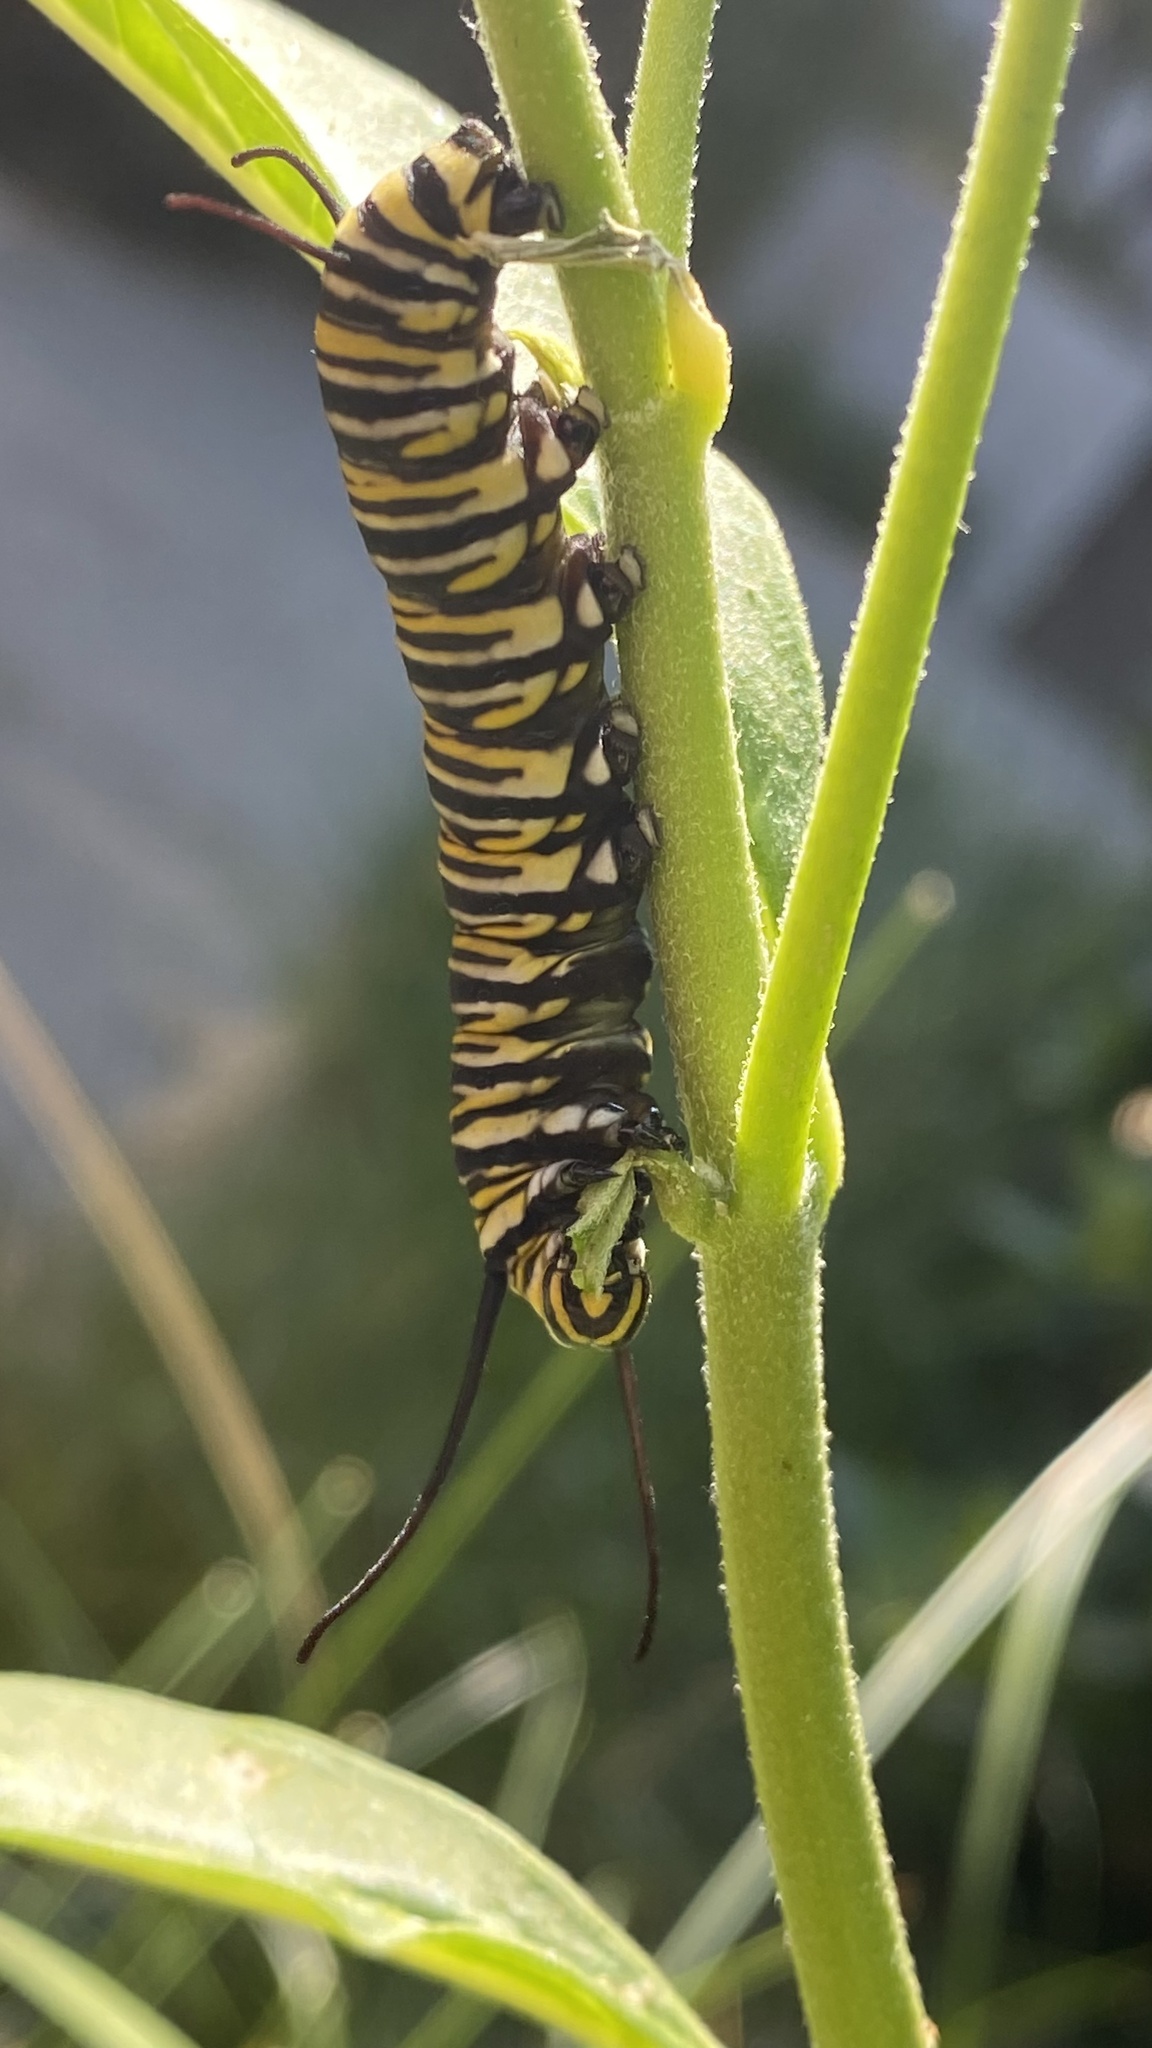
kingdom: Animalia
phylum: Arthropoda
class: Insecta
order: Lepidoptera
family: Nymphalidae
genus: Danaus
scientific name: Danaus plexippus
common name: Monarch
